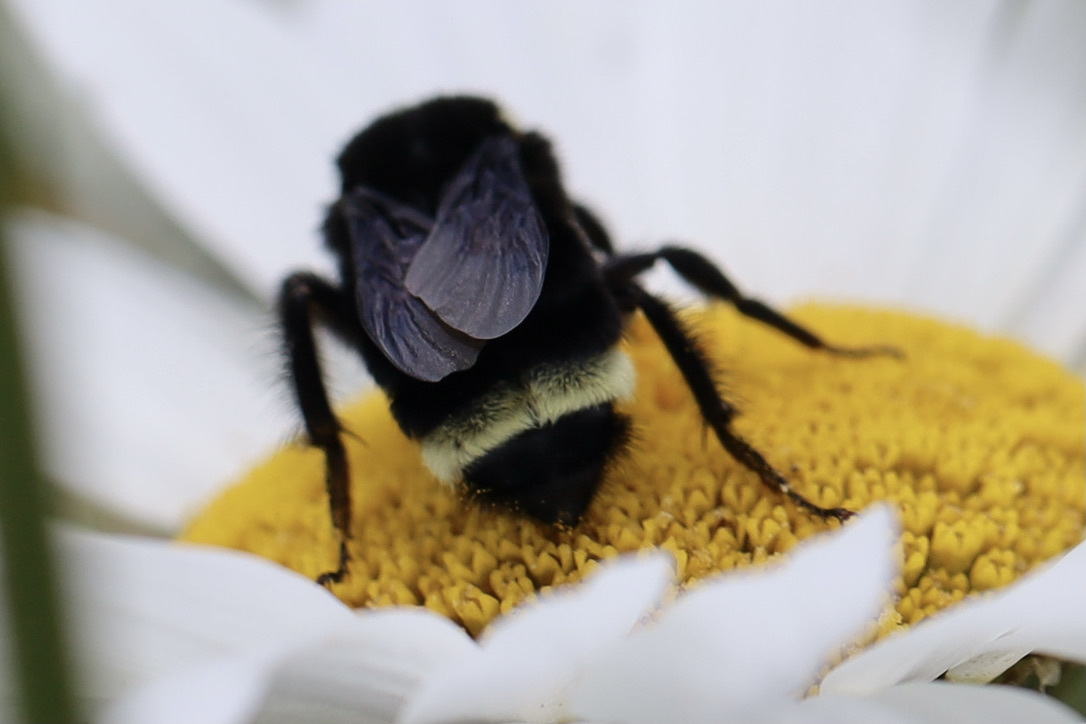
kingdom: Animalia
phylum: Arthropoda
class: Insecta
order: Hymenoptera
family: Apidae
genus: Bombus
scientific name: Bombus vosnesenskii
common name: Vosnesensky bumble bee
